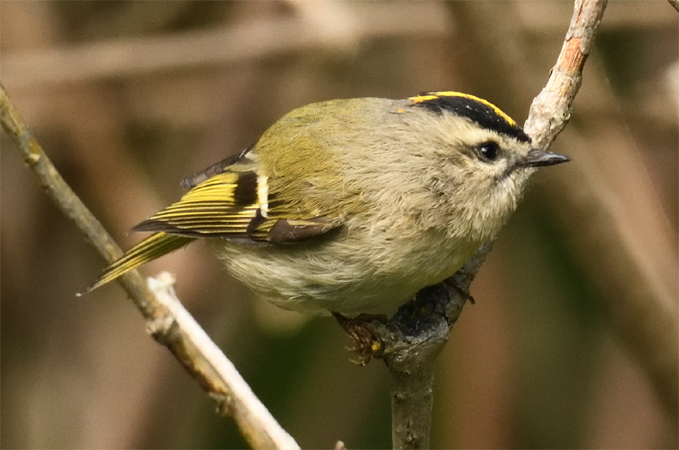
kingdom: Animalia
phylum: Chordata
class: Aves
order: Passeriformes
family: Regulidae
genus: Regulus
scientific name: Regulus satrapa
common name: Golden-crowned kinglet
